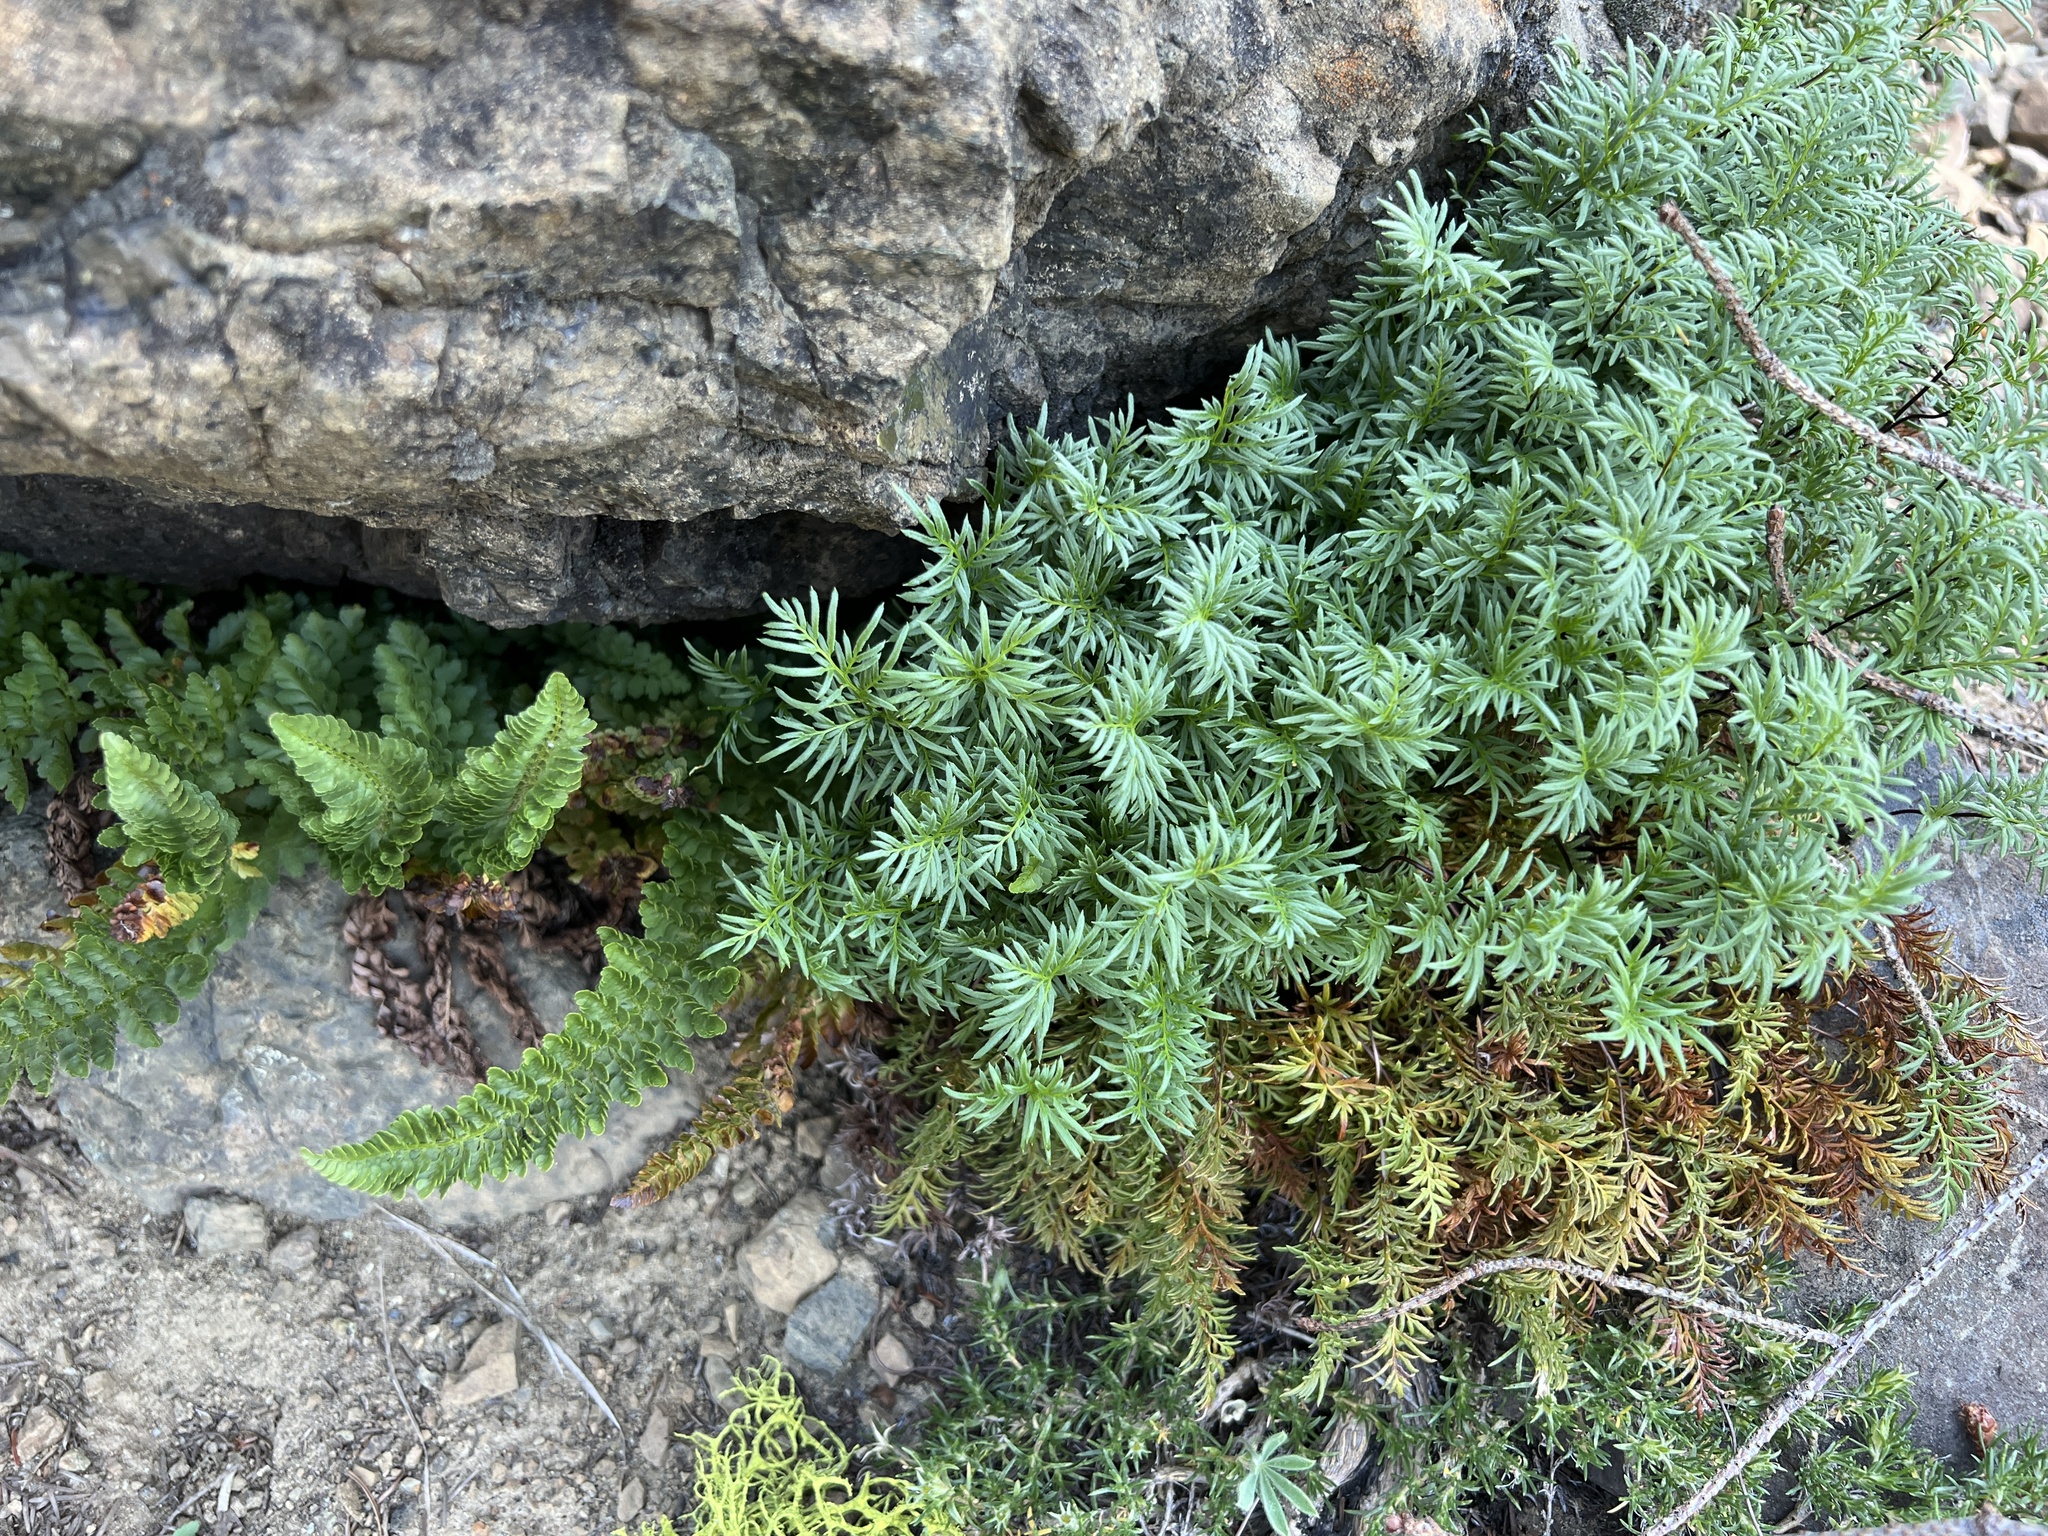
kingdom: Plantae
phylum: Tracheophyta
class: Polypodiopsida
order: Polypodiales
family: Pteridaceae
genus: Aspidotis
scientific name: Aspidotis densa
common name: Indian's dream
